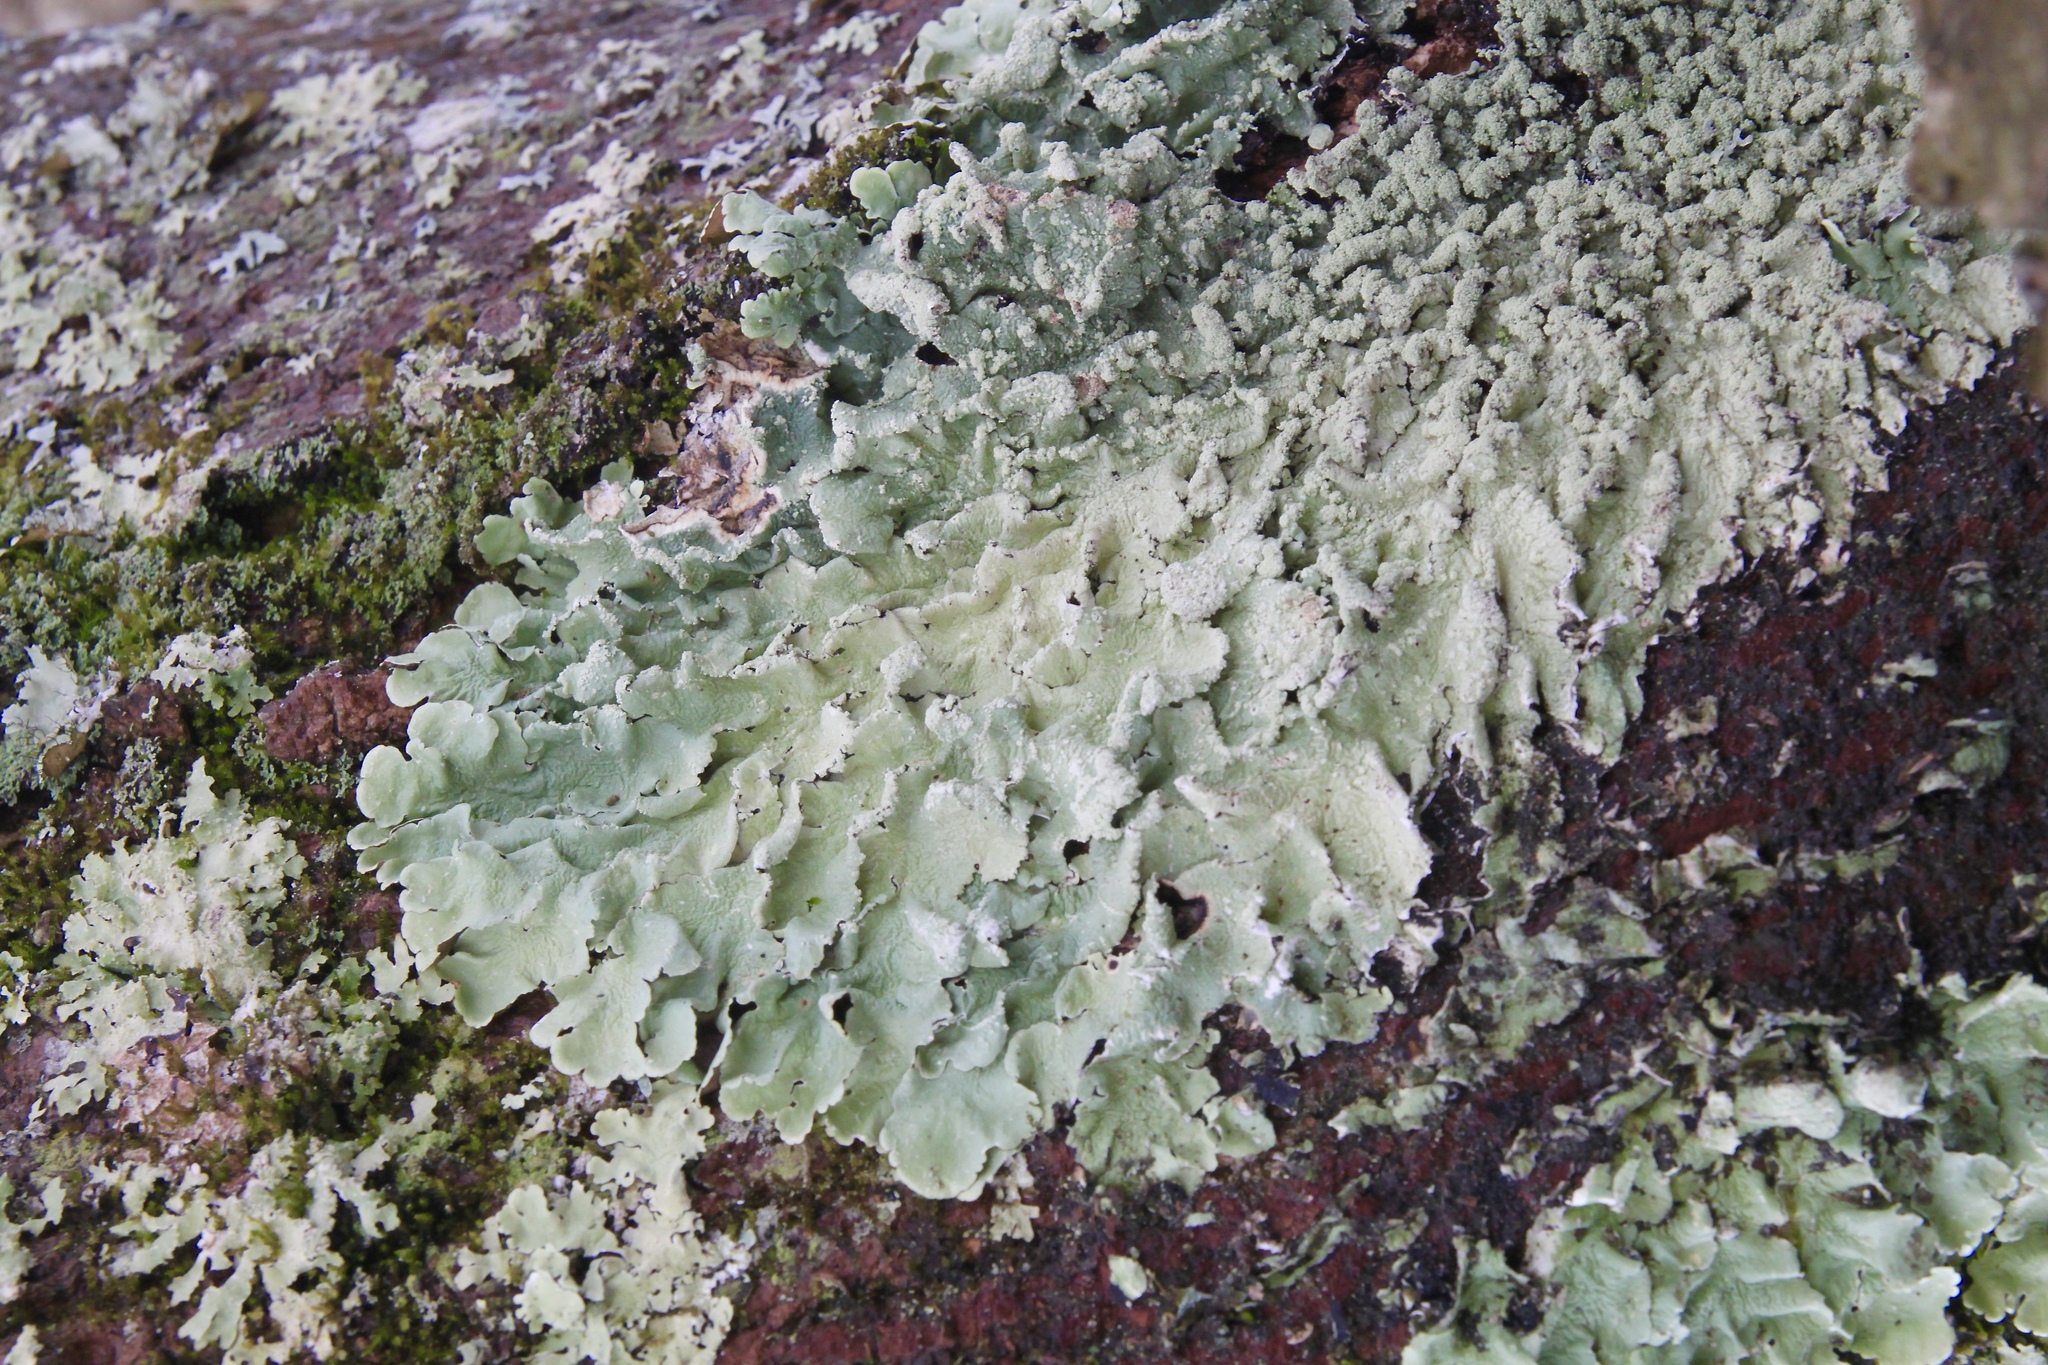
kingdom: Fungi
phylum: Ascomycota
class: Lecanoromycetes
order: Lecanorales
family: Parmeliaceae
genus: Flavoparmelia
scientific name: Flavoparmelia caperata
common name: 40-mile per hour lichen
